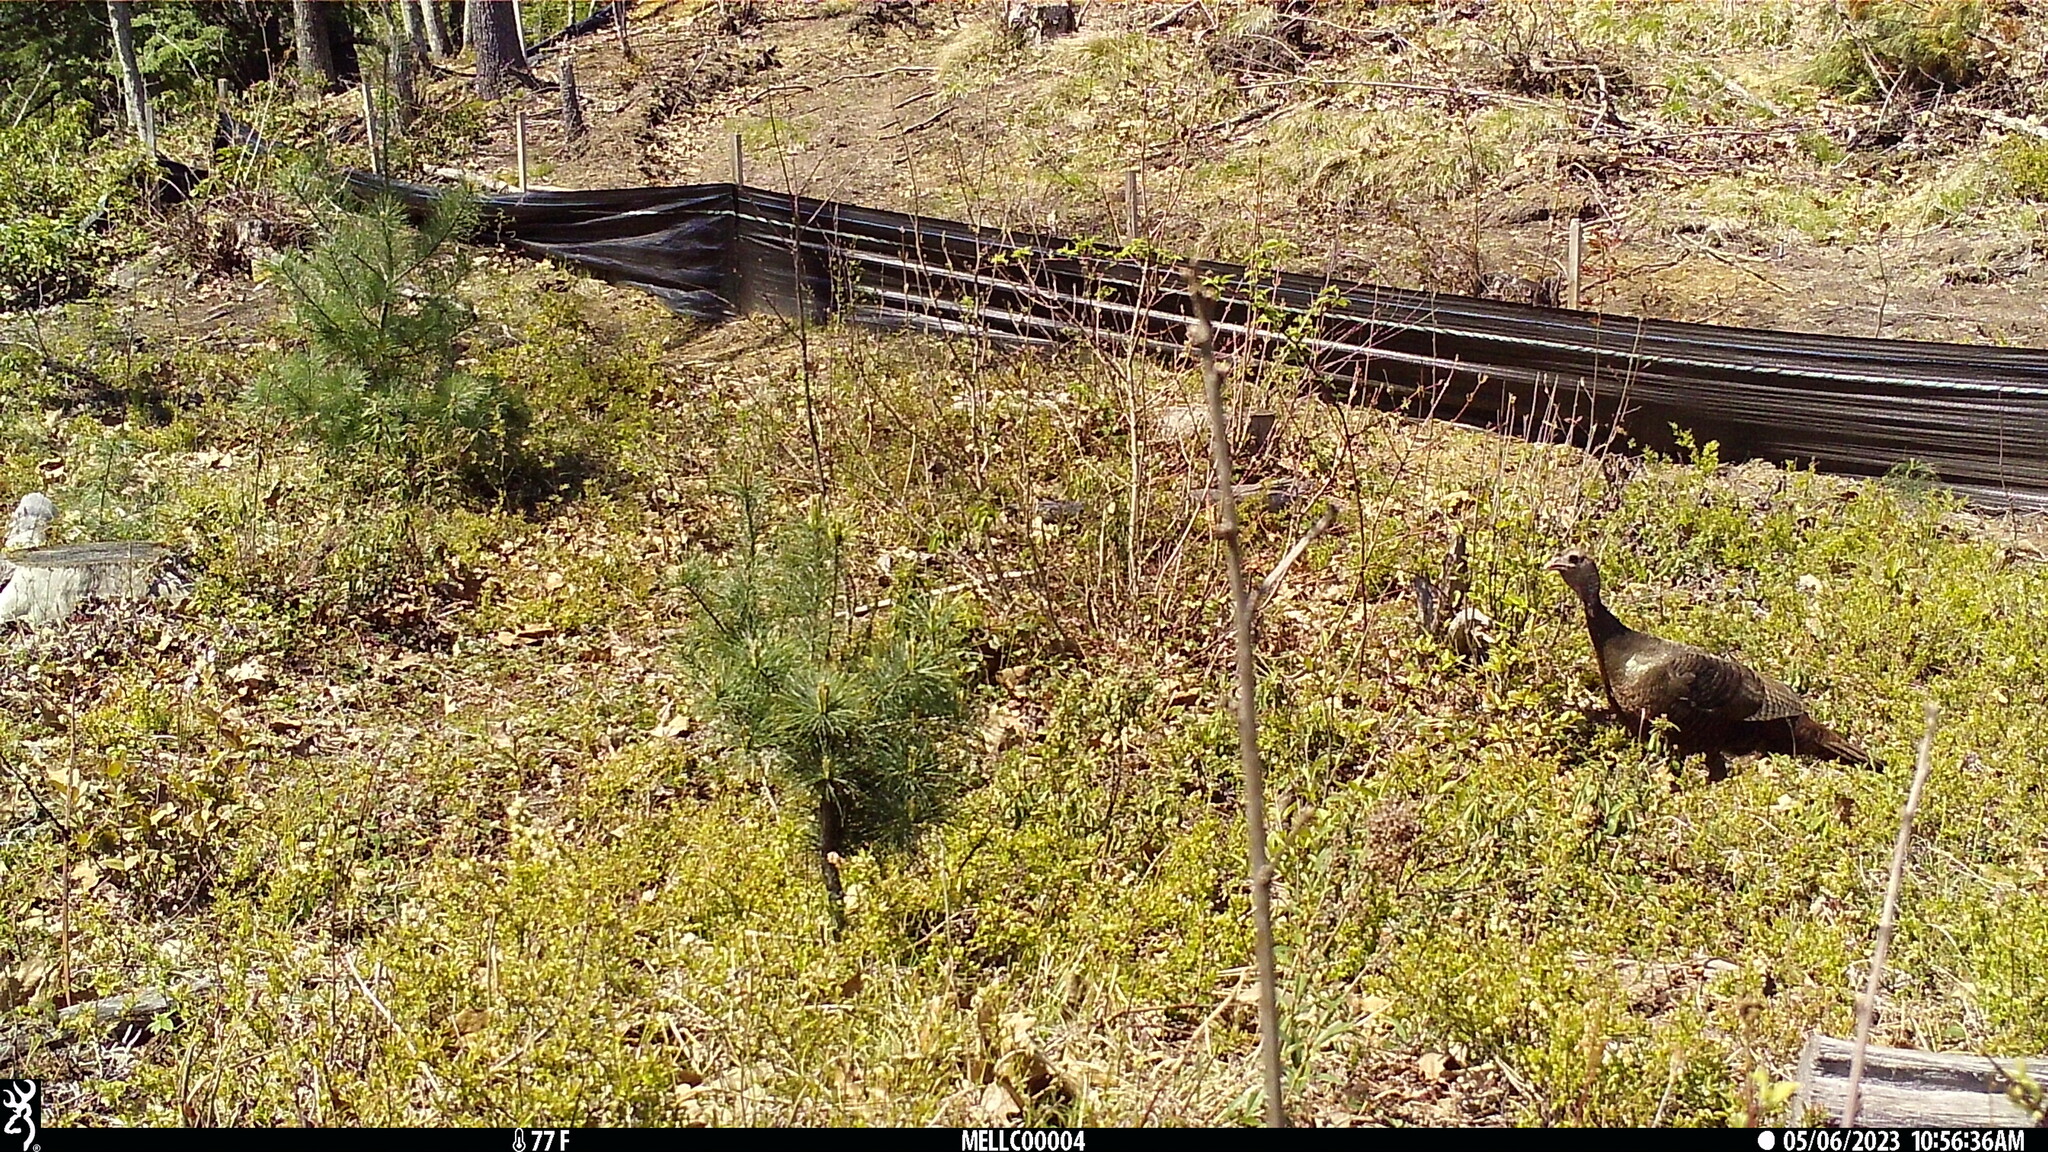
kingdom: Animalia
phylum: Chordata
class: Aves
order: Galliformes
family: Phasianidae
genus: Meleagris
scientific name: Meleagris gallopavo
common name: Wild turkey
